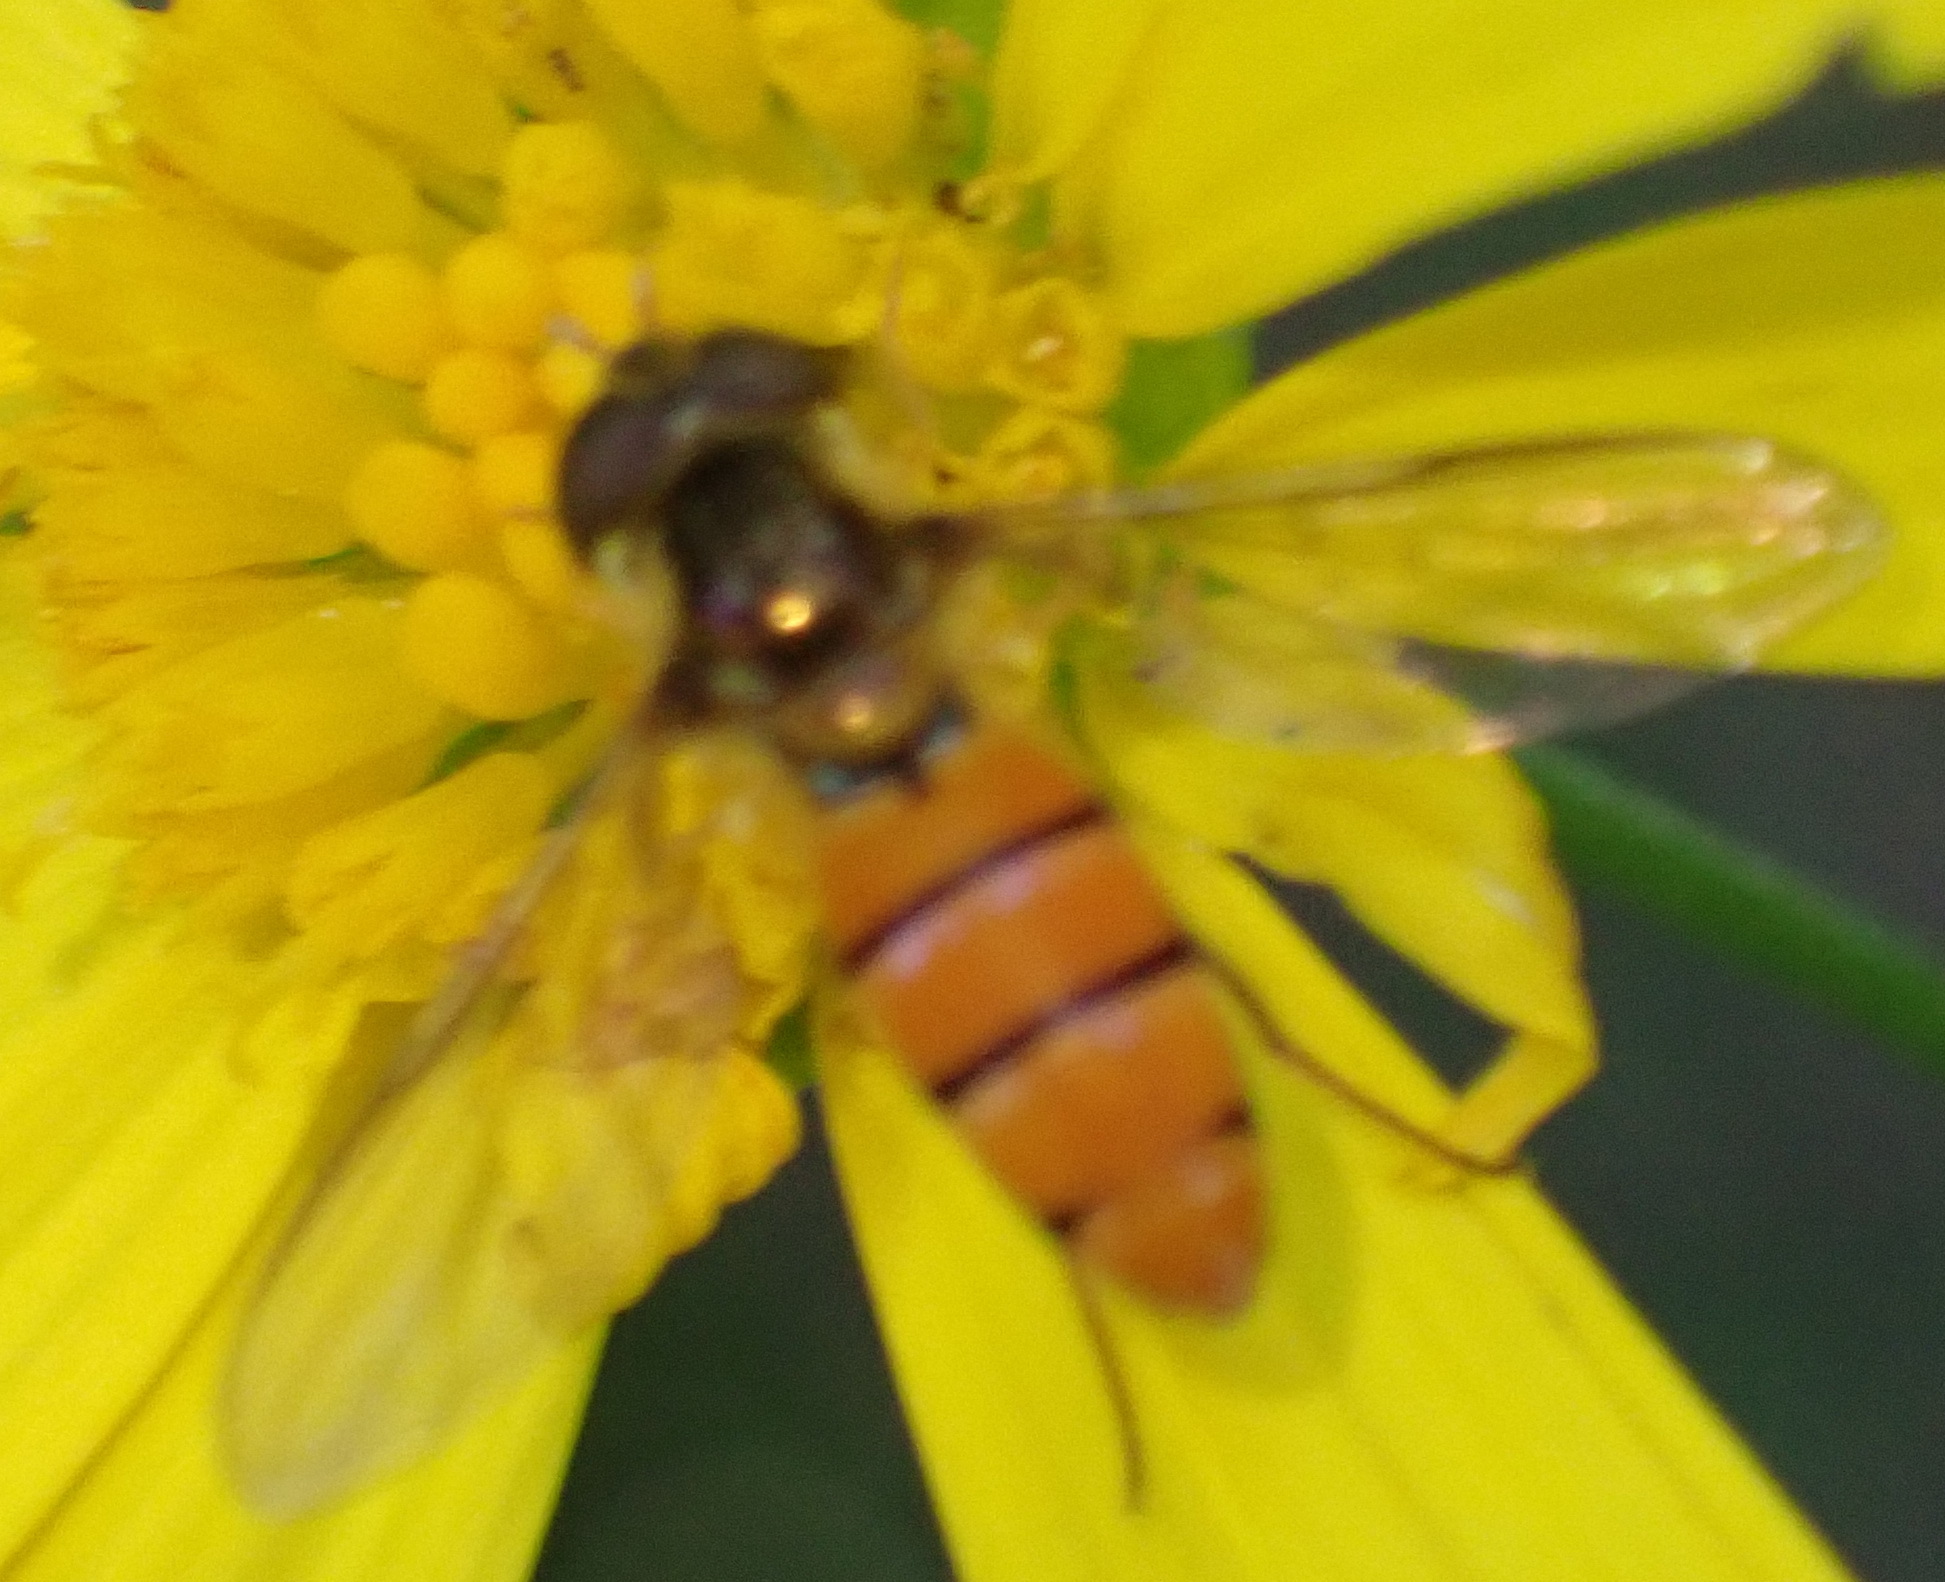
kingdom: Animalia
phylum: Arthropoda
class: Insecta
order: Diptera
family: Syrphidae
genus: Episyrphus
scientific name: Episyrphus trisectus
